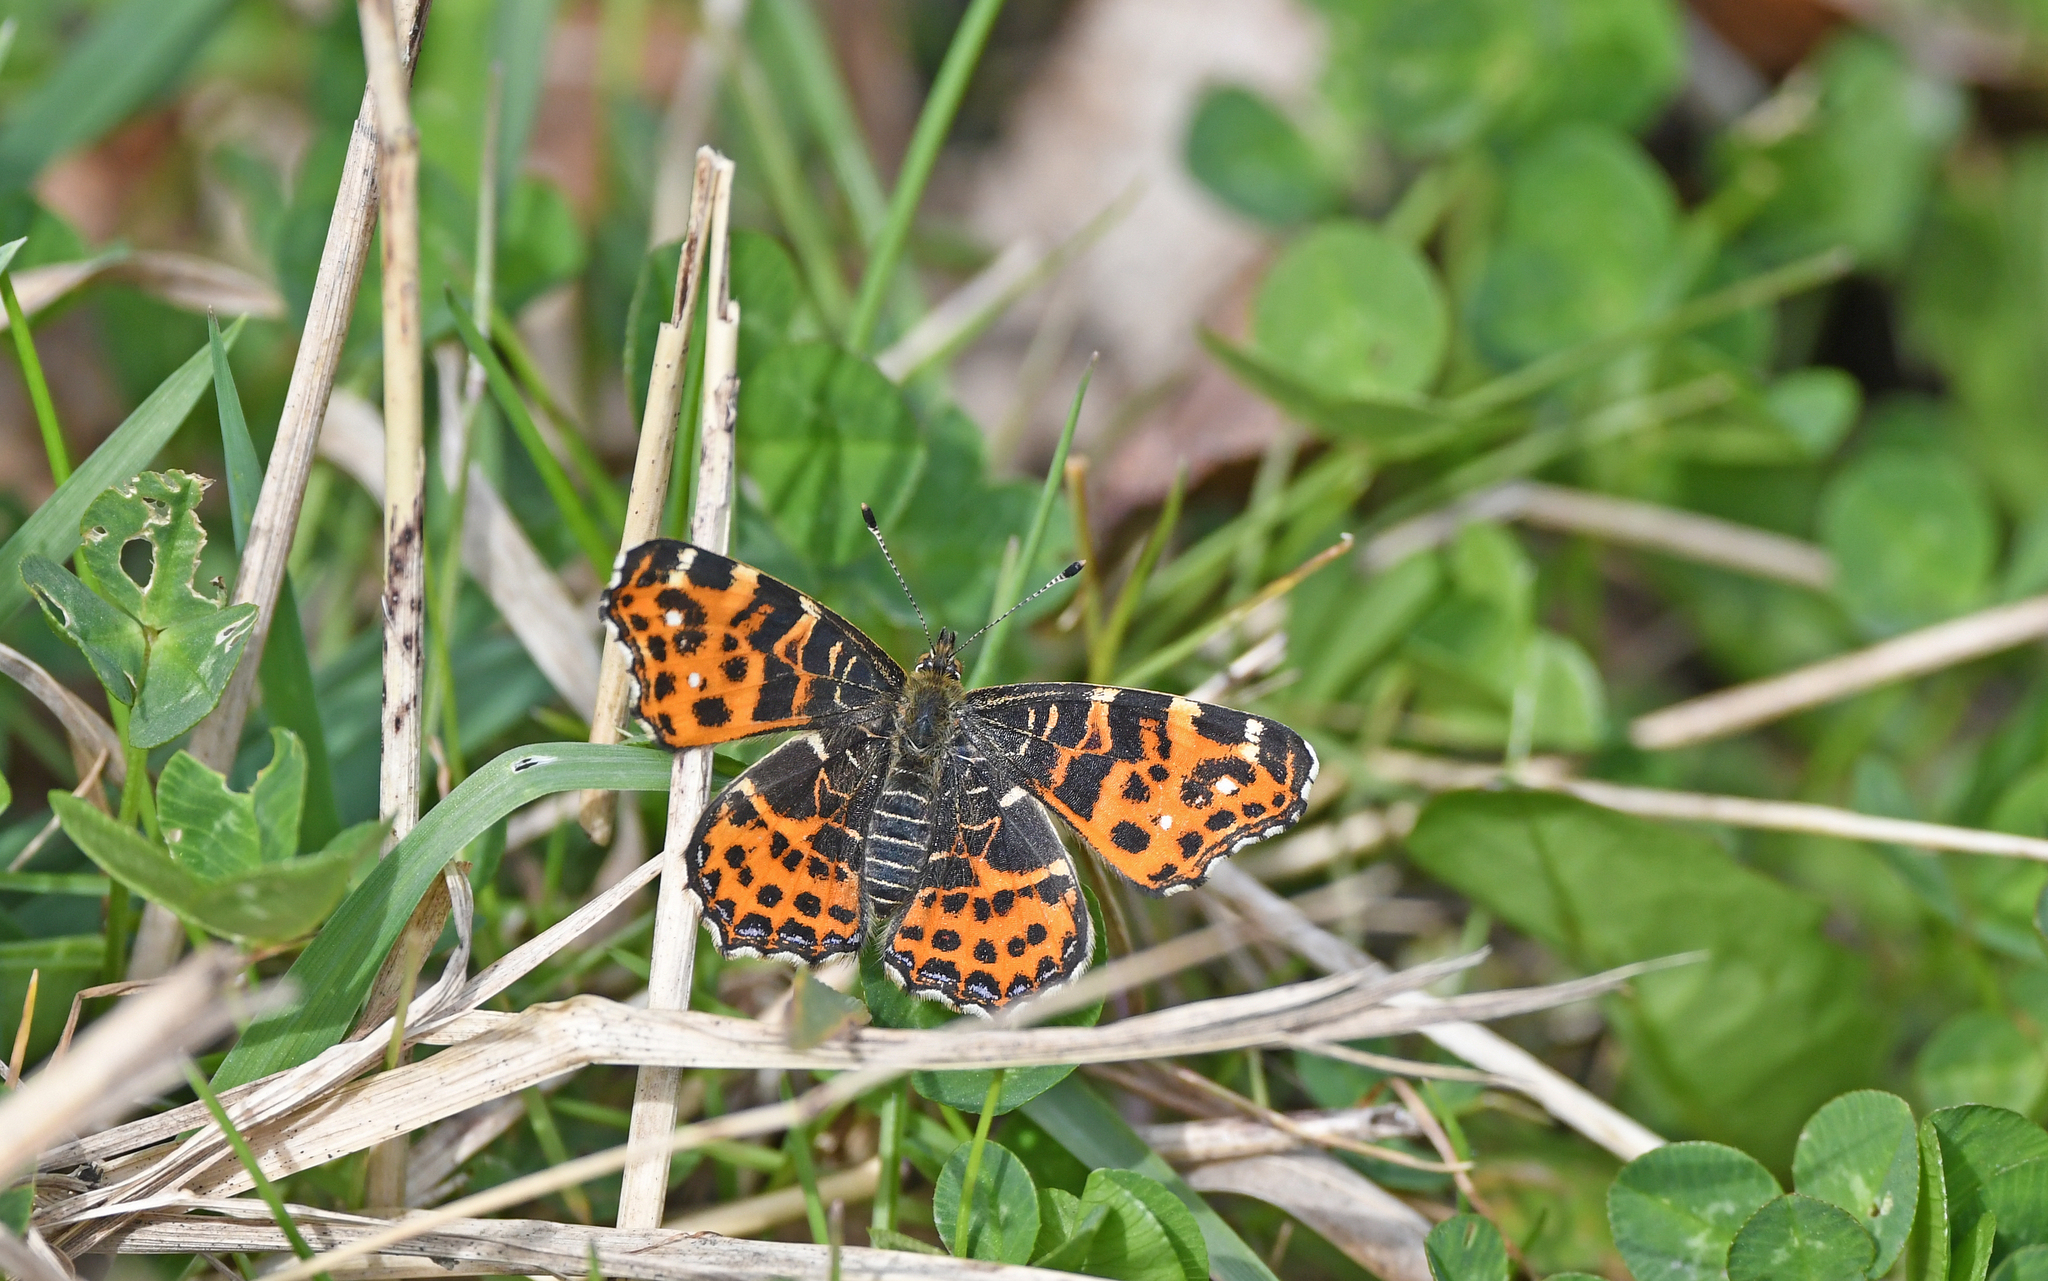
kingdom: Animalia
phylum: Arthropoda
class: Insecta
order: Lepidoptera
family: Nymphalidae
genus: Araschnia
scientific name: Araschnia levana
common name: Map butterfly
